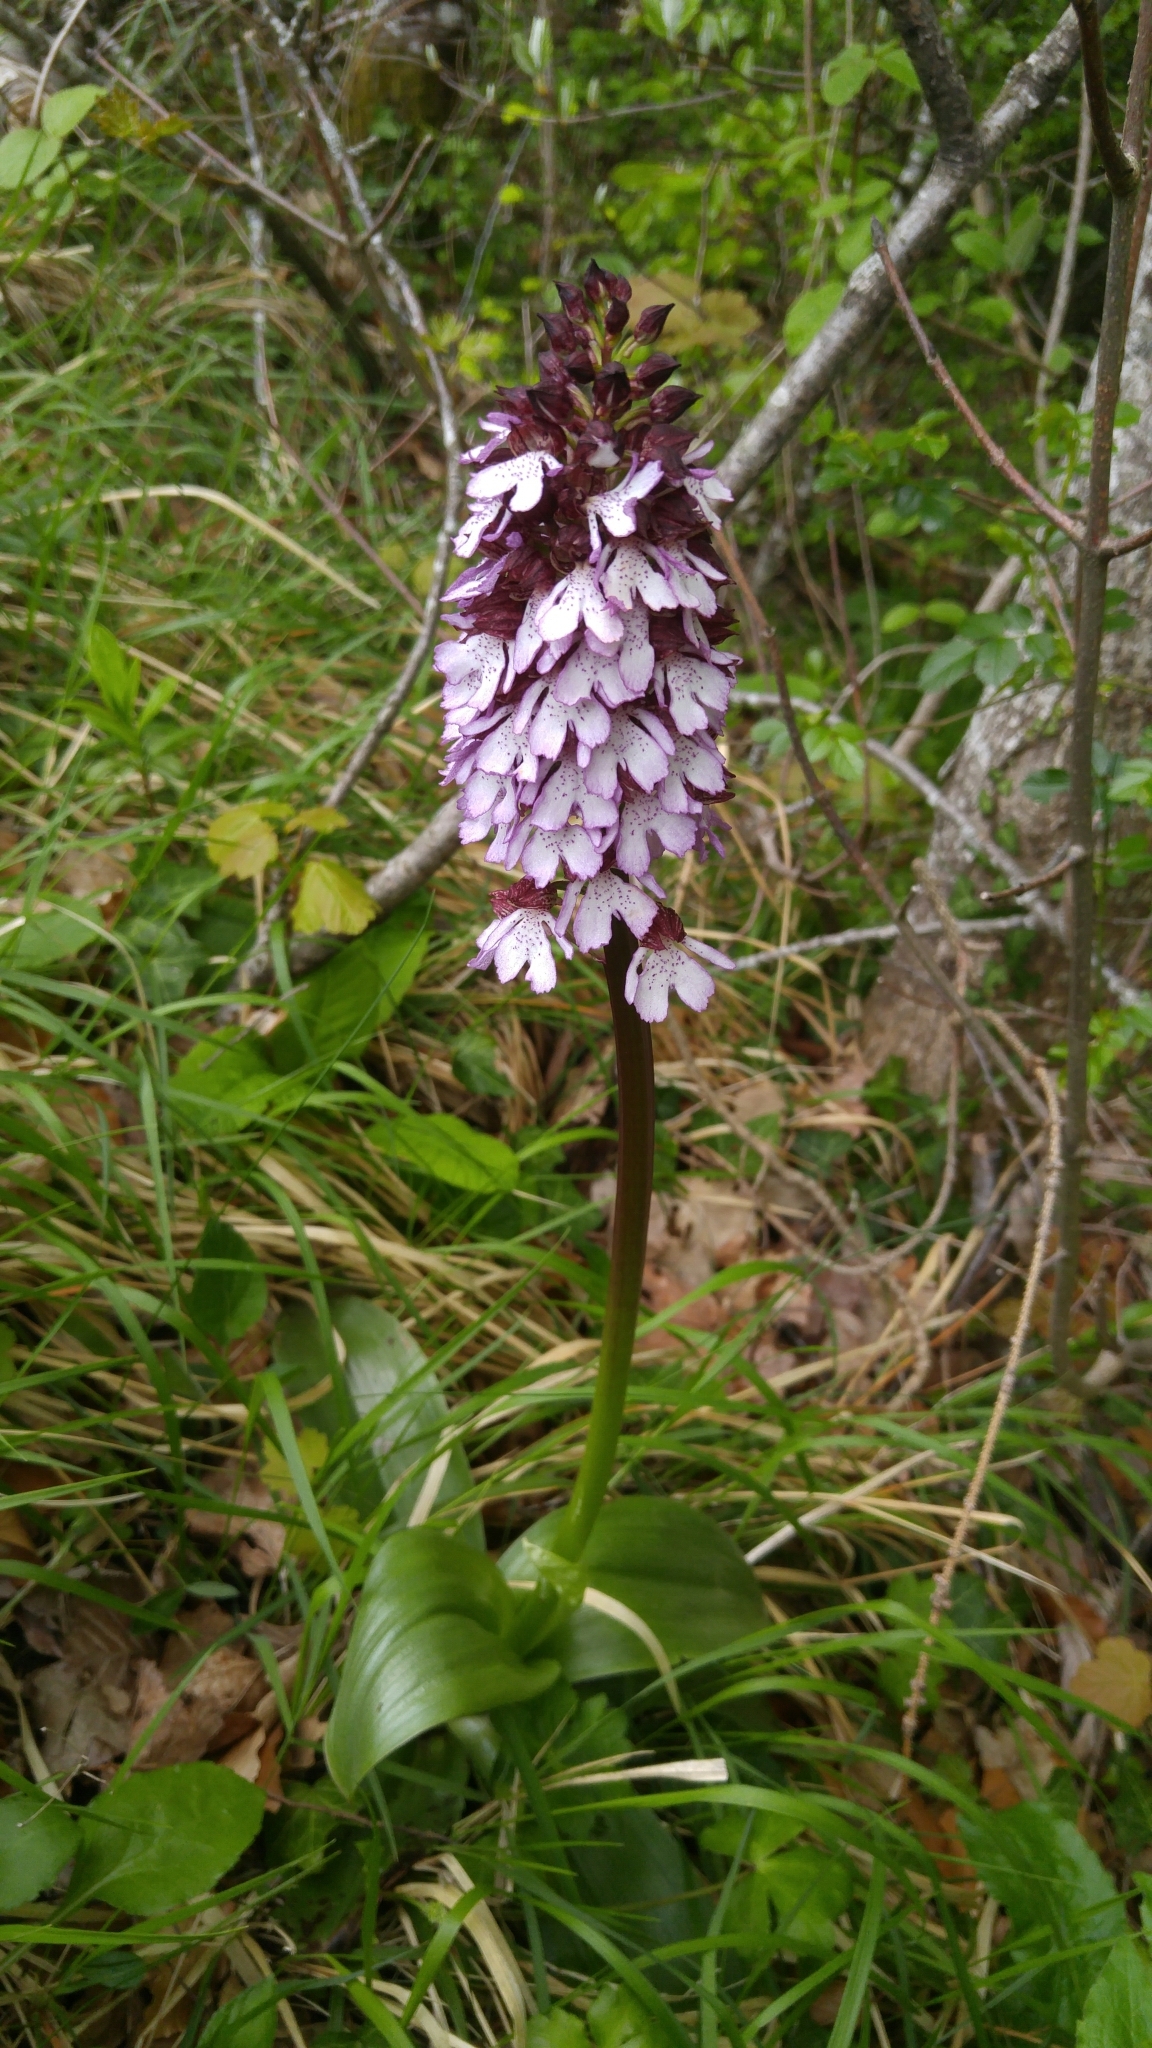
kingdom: Plantae
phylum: Tracheophyta
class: Liliopsida
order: Asparagales
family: Orchidaceae
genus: Orchis
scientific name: Orchis purpurea
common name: Lady orchid
